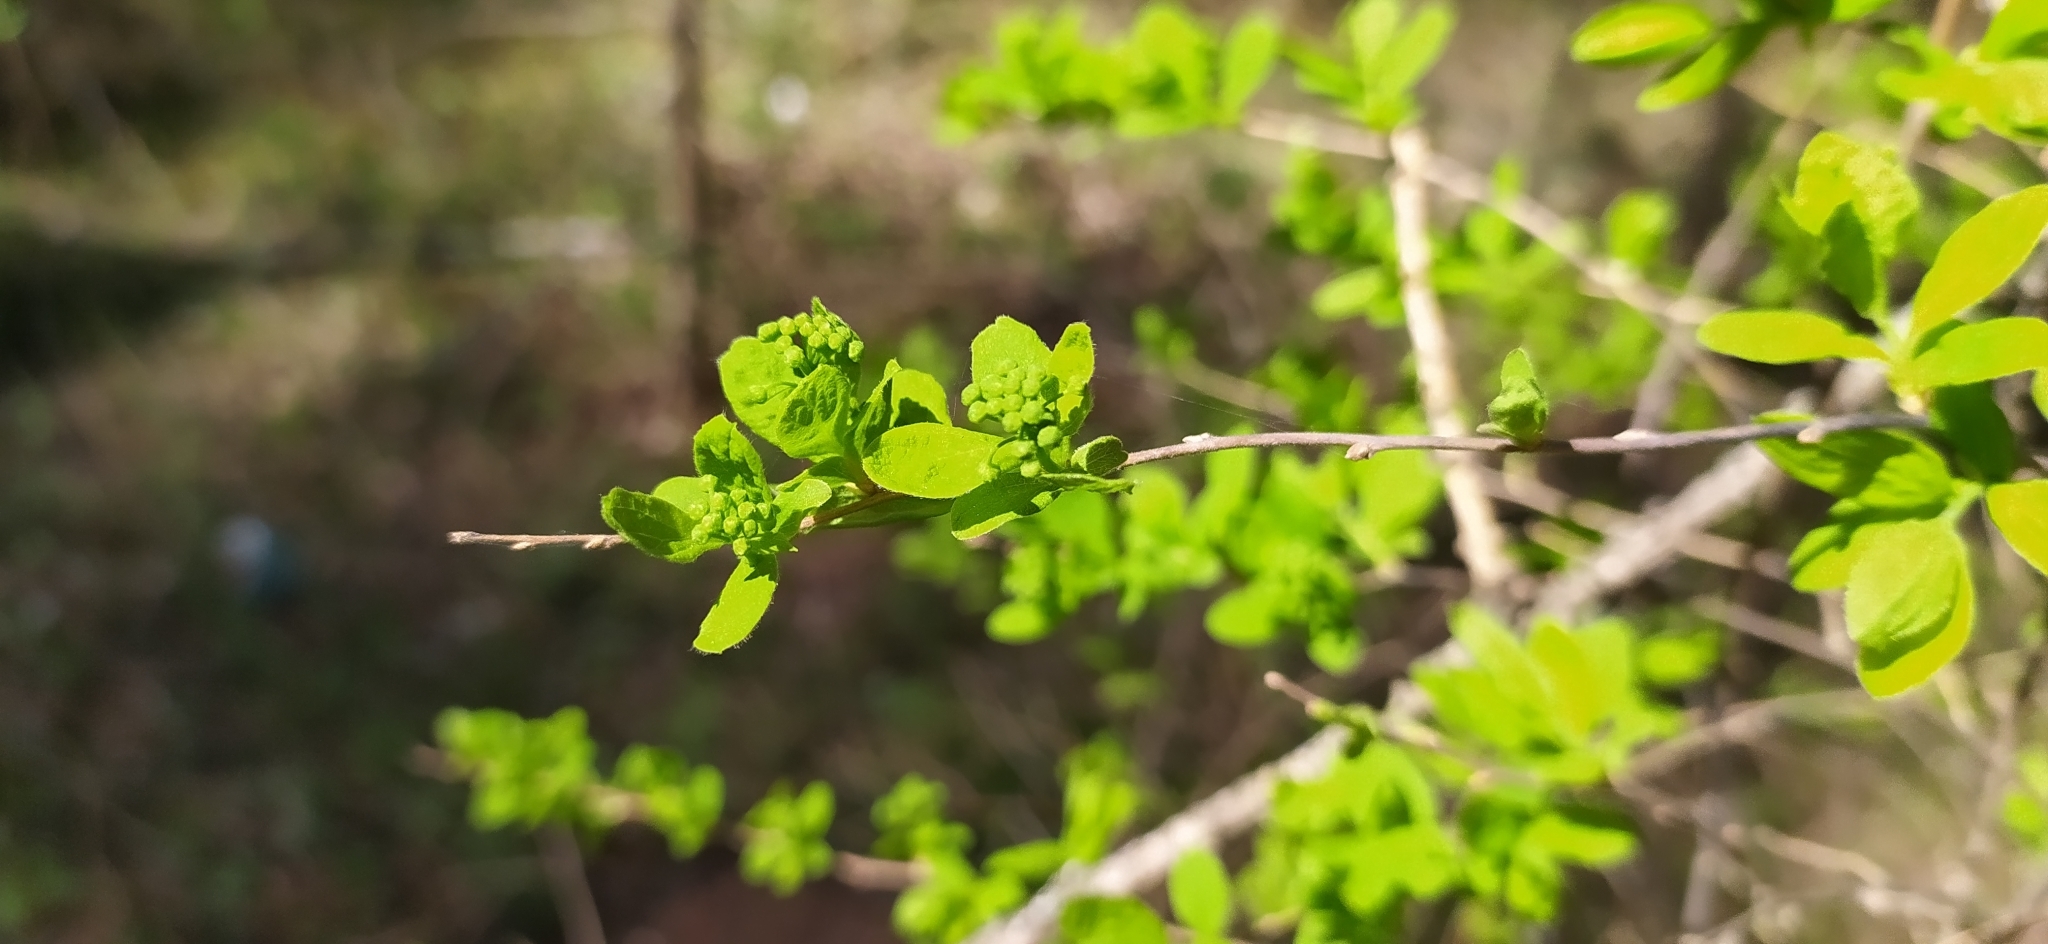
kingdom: Plantae
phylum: Tracheophyta
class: Magnoliopsida
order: Rosales
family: Rosaceae
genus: Spiraea
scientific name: Spiraea media
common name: Russian spiraea
